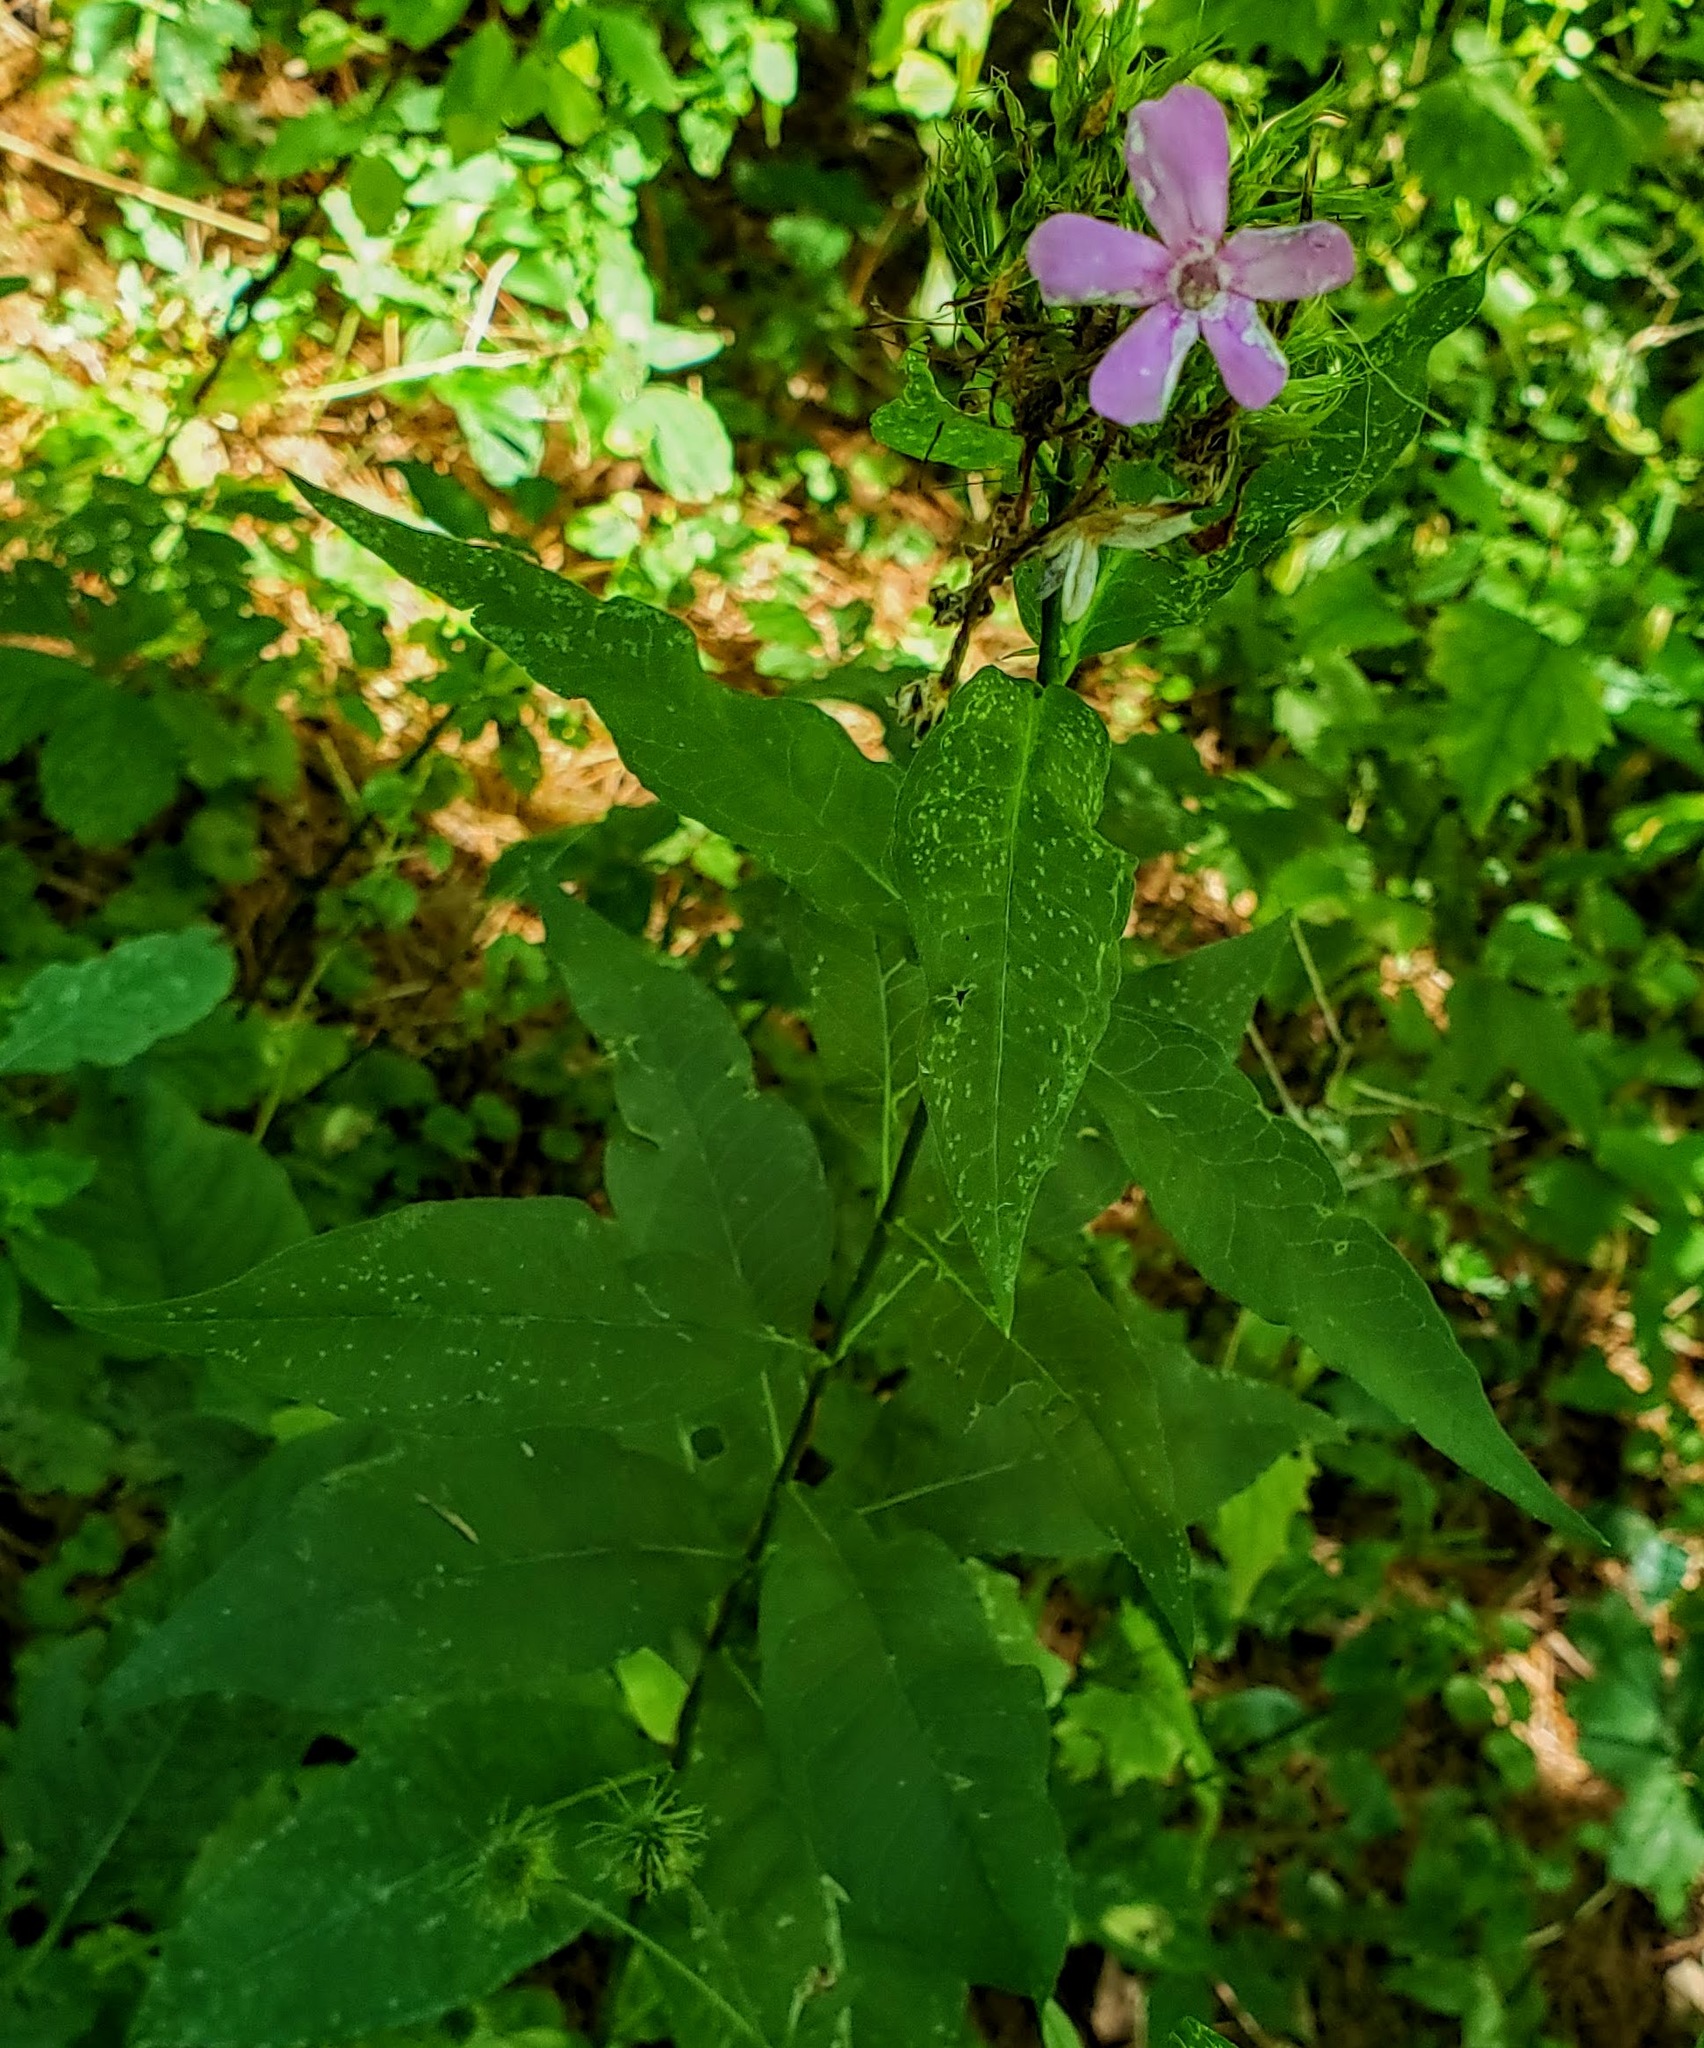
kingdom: Plantae
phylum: Tracheophyta
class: Magnoliopsida
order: Ericales
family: Polemoniaceae
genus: Phlox
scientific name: Phlox paniculata
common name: Fall phlox
